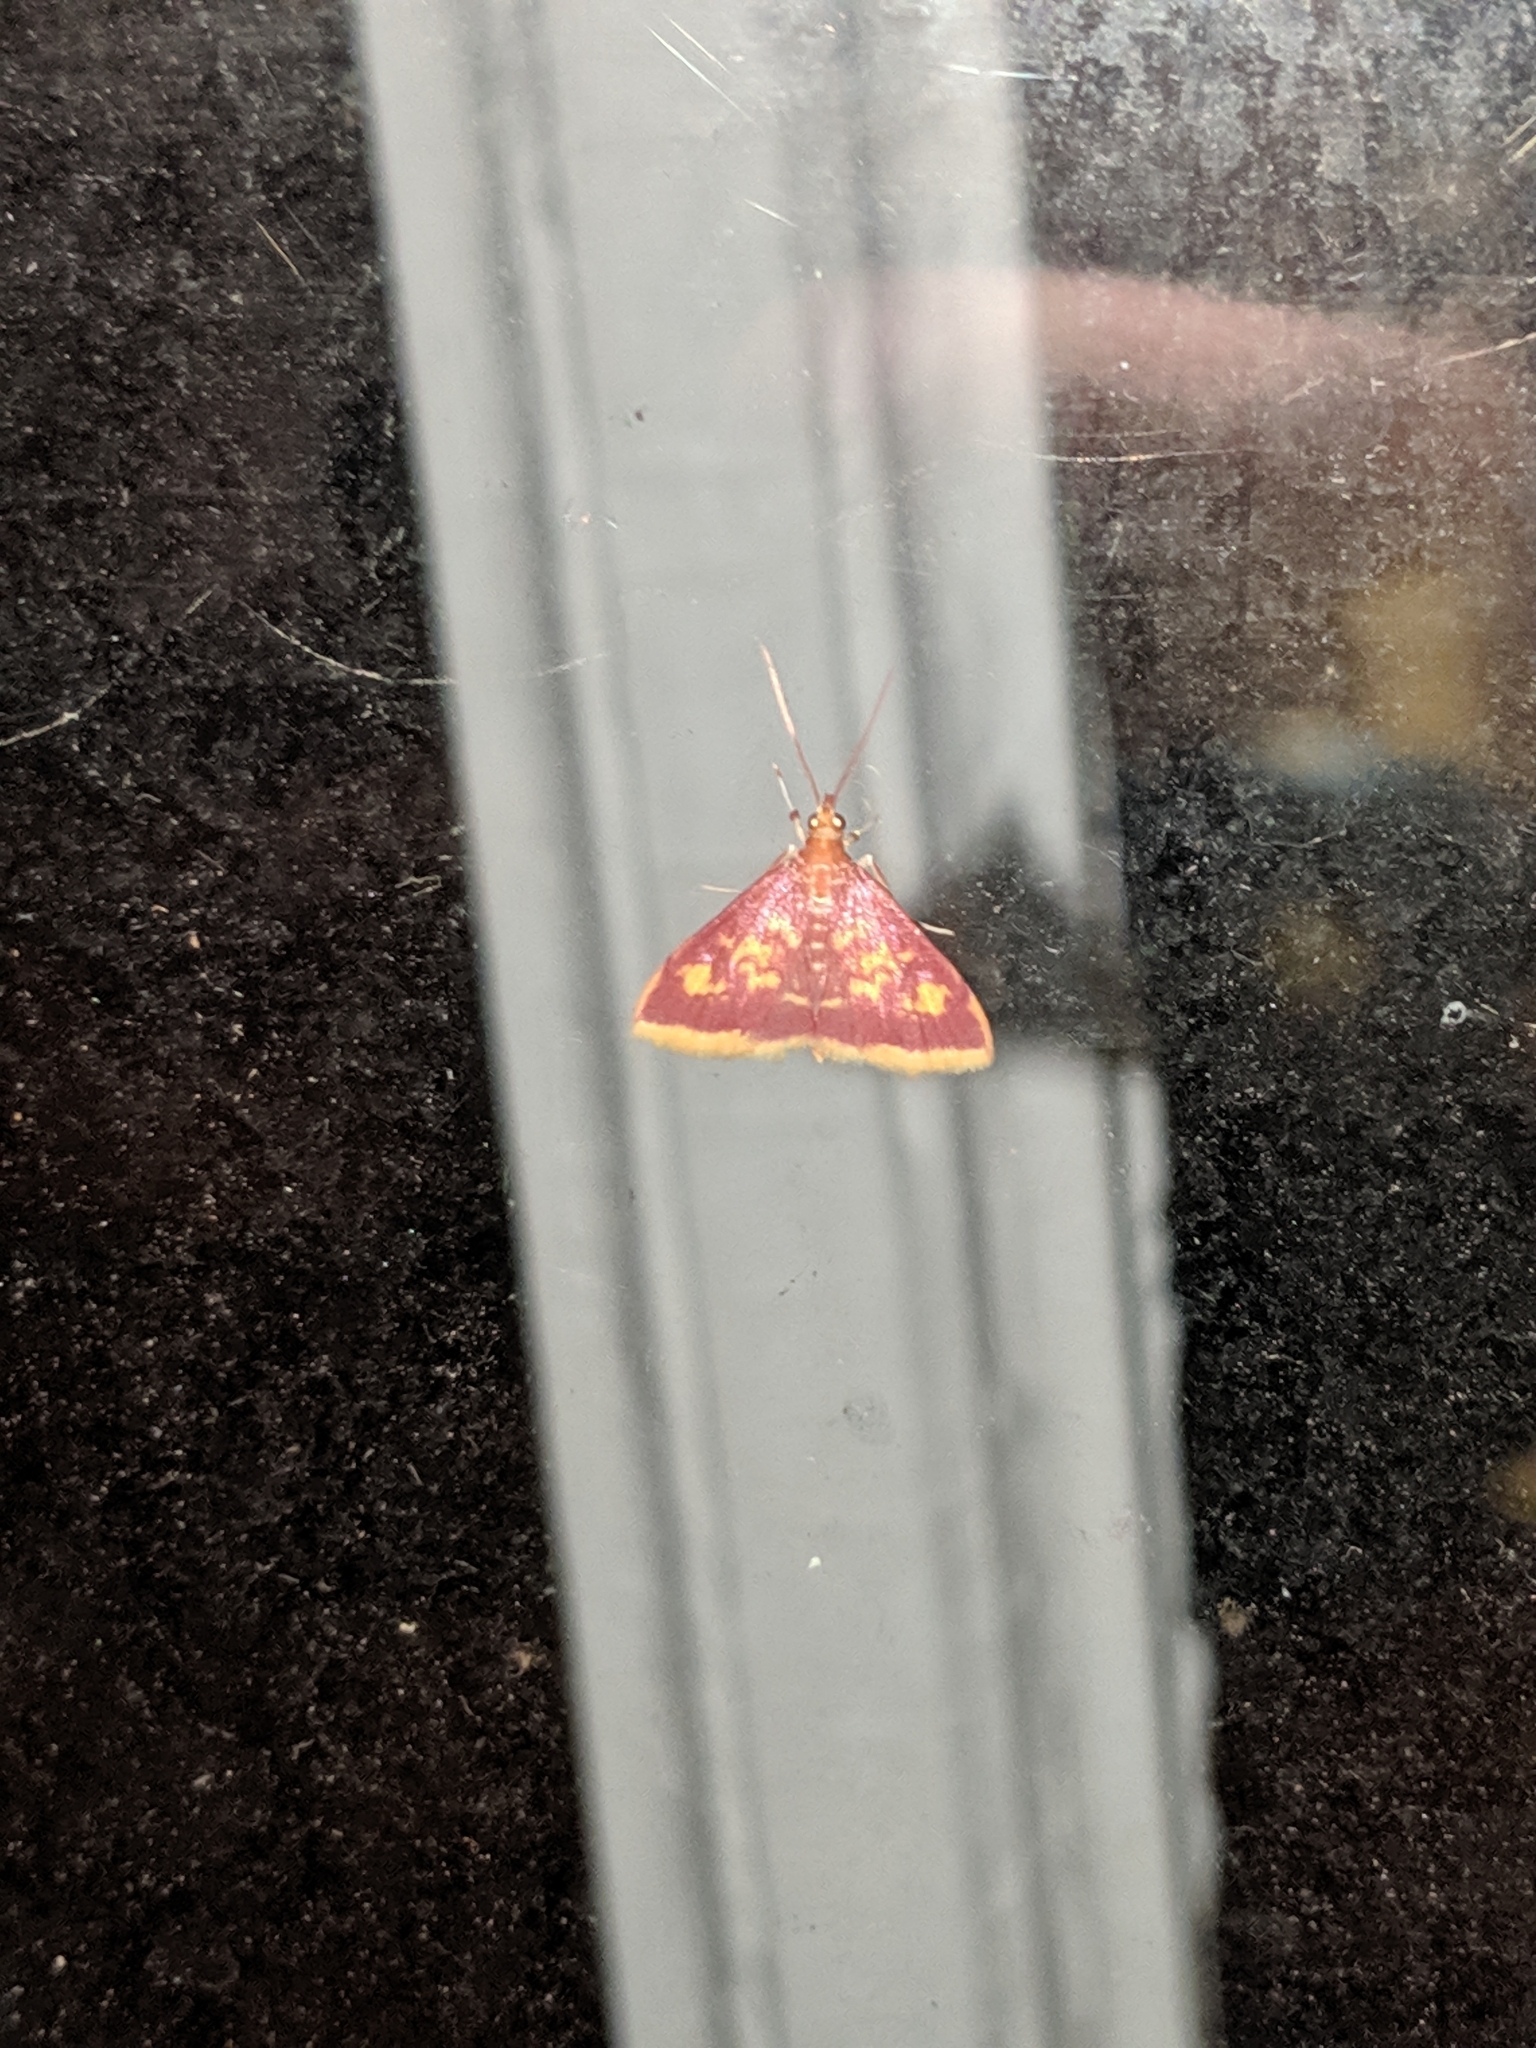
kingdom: Animalia
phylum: Arthropoda
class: Insecta
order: Lepidoptera
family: Crambidae
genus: Pyrausta
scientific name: Pyrausta acrionalis
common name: Mint-loving pyrausta moth
